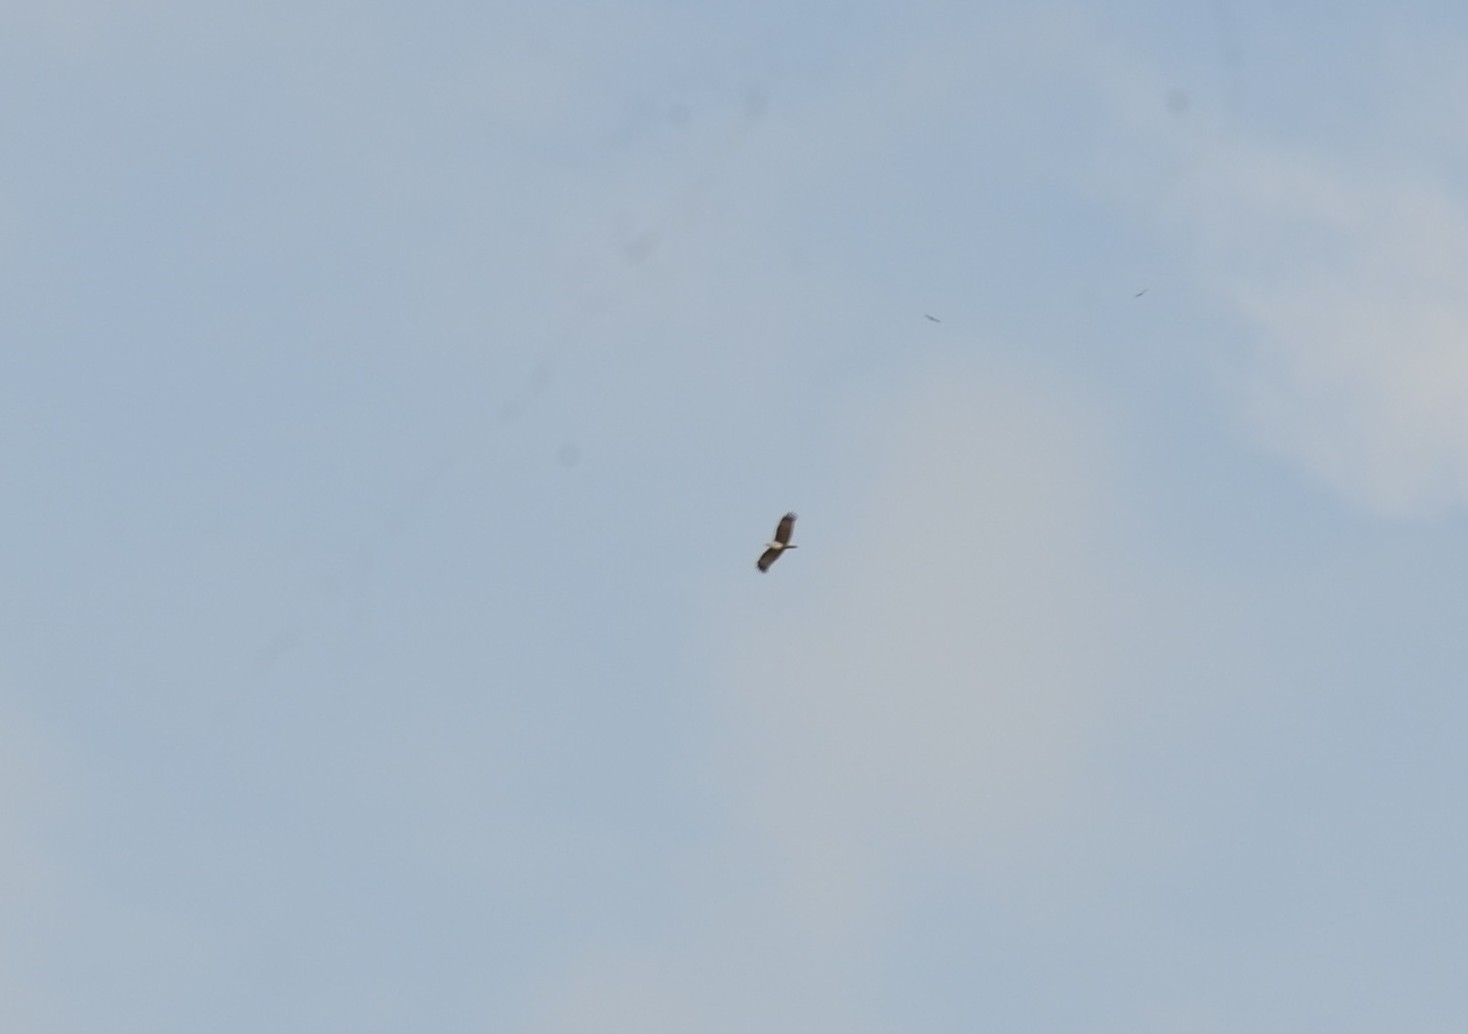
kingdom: Animalia
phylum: Chordata
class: Aves
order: Accipitriformes
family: Accipitridae
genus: Haliastur
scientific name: Haliastur indus
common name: Brahminy kite
